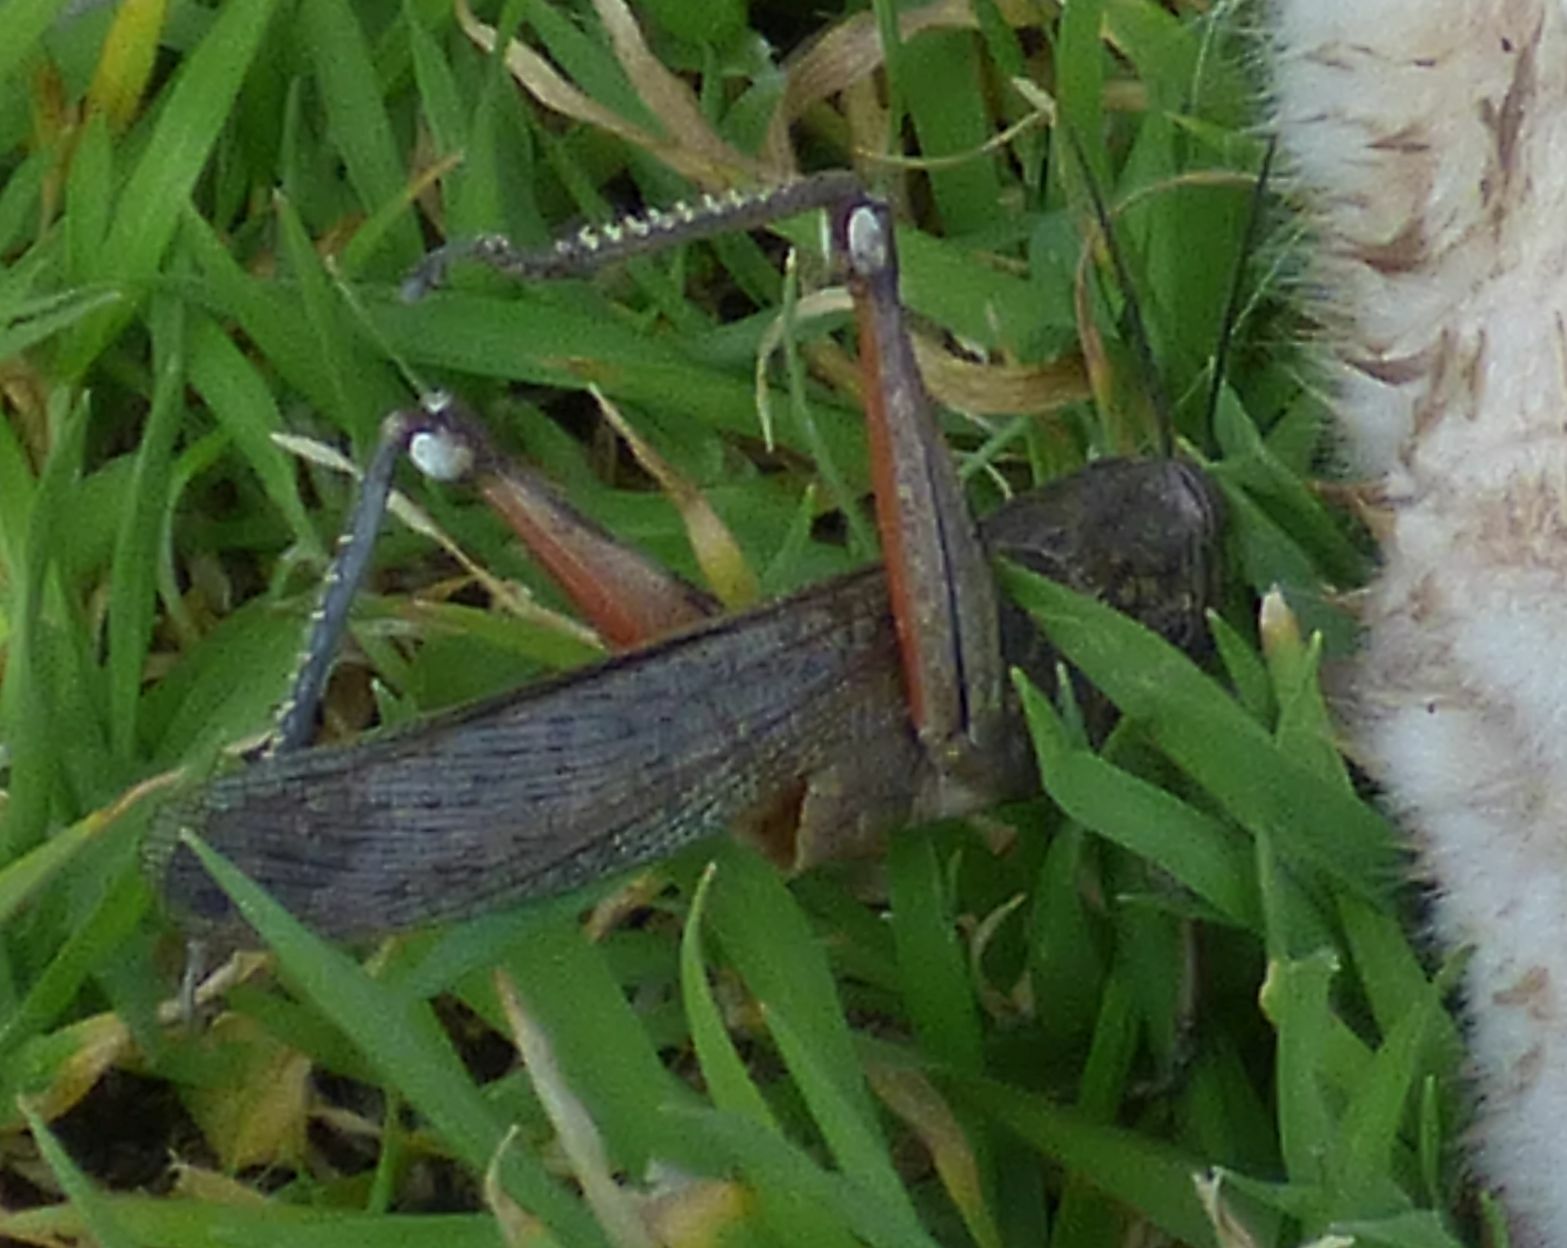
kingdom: Animalia
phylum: Arthropoda
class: Insecta
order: Orthoptera
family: Acrididae
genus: Anacridium
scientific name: Anacridium aegyptium
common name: Egyptian grasshopper
